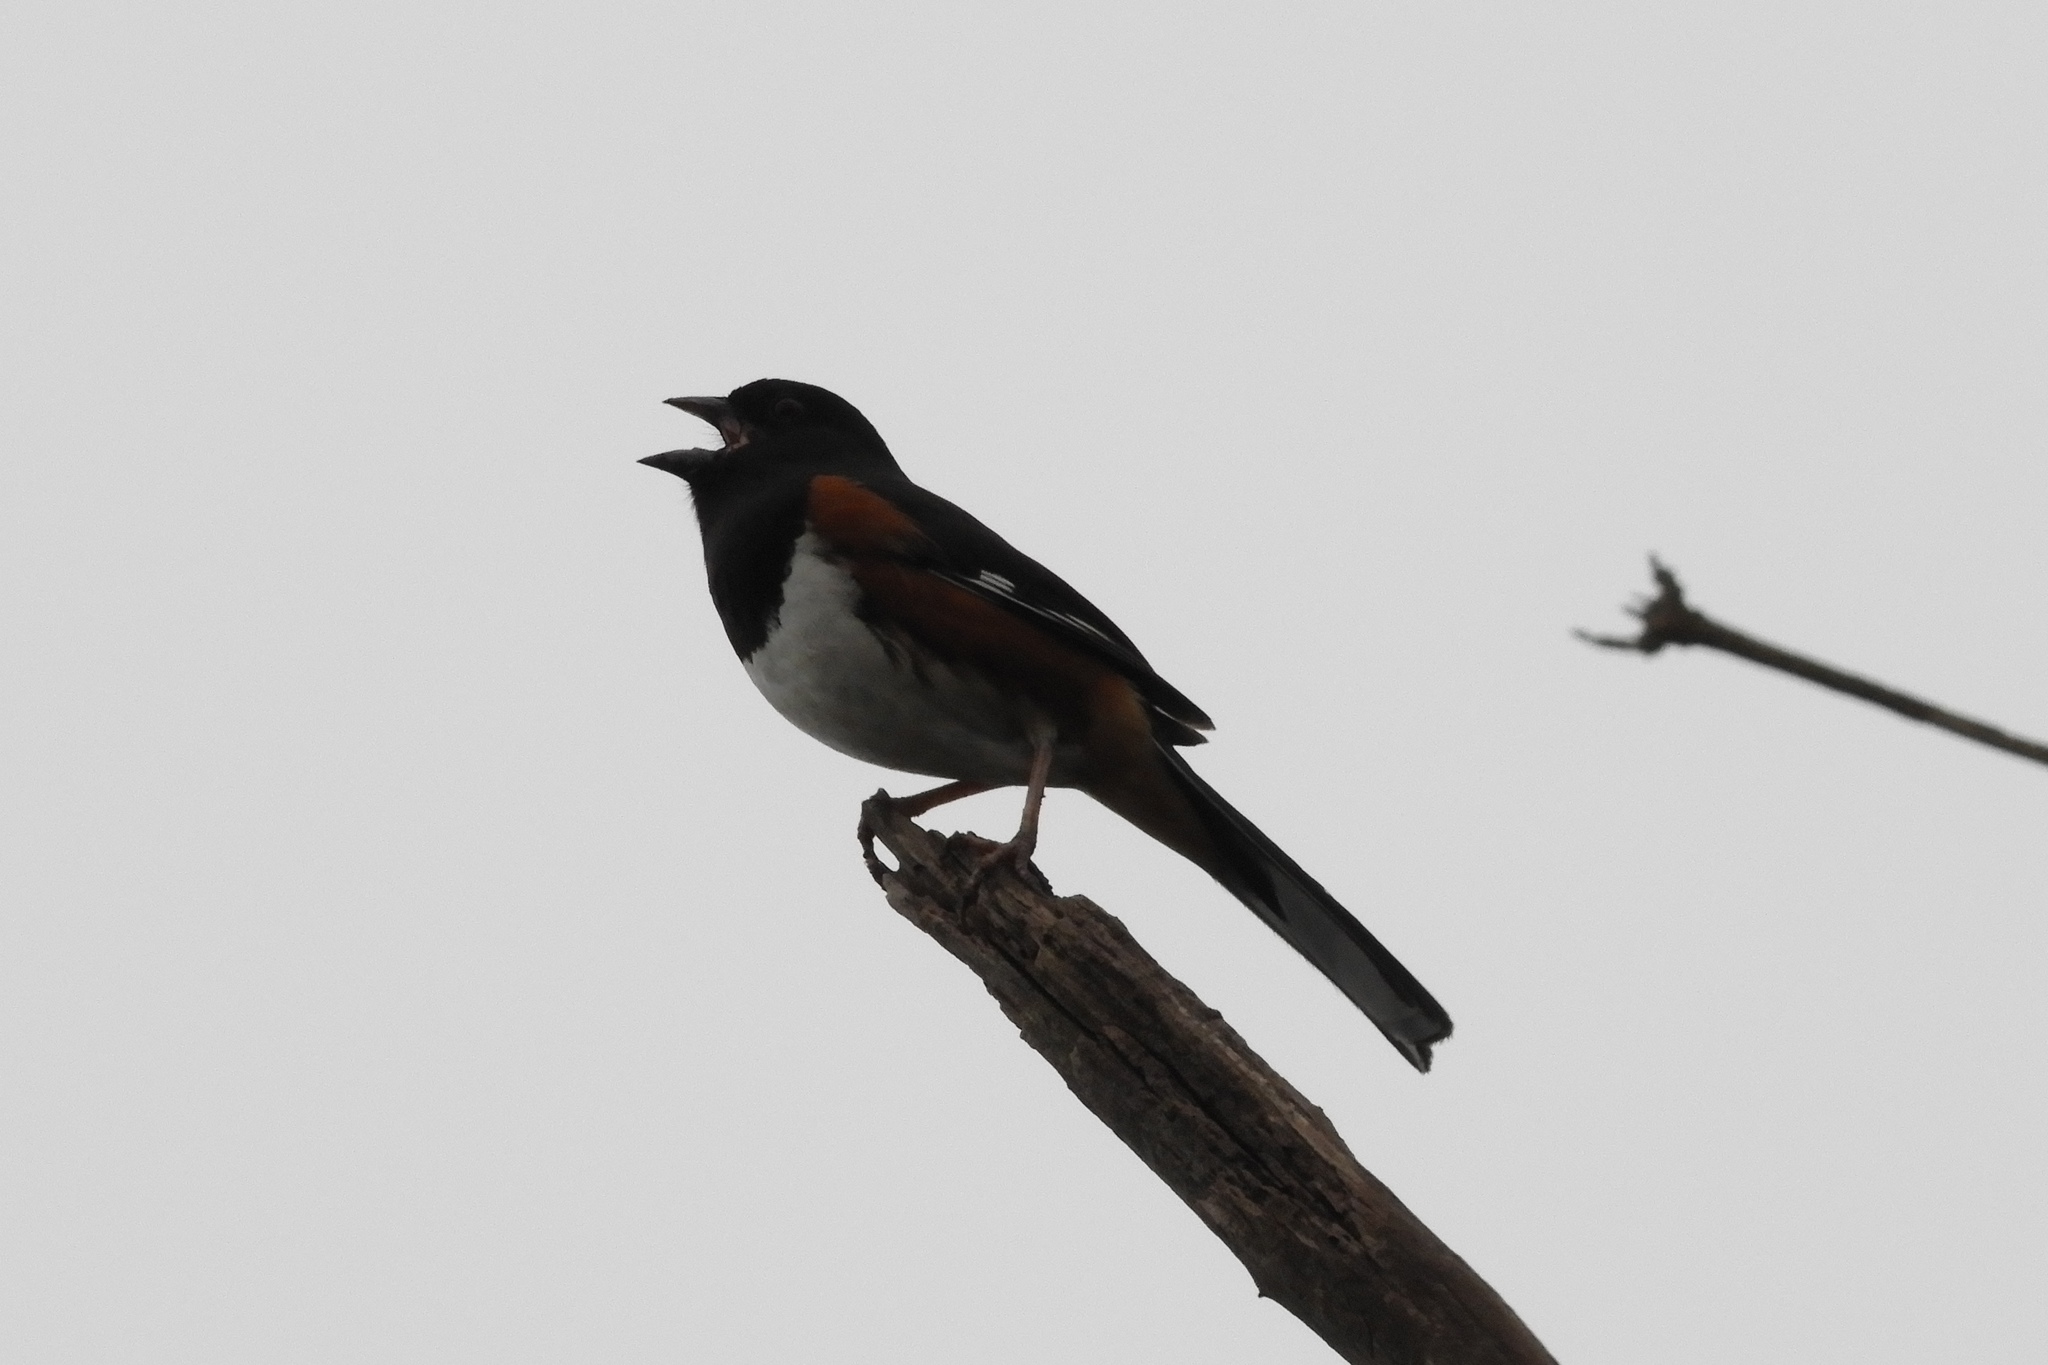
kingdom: Animalia
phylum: Chordata
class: Aves
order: Passeriformes
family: Passerellidae
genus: Pipilo
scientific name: Pipilo erythrophthalmus
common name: Eastern towhee
